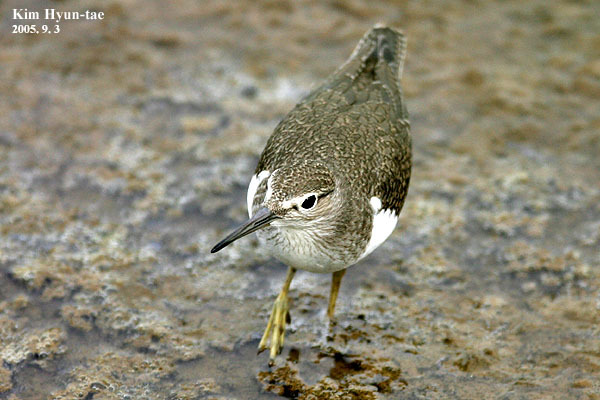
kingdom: Animalia
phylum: Chordata
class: Aves
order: Charadriiformes
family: Scolopacidae
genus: Actitis
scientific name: Actitis hypoleucos
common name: Common sandpiper
